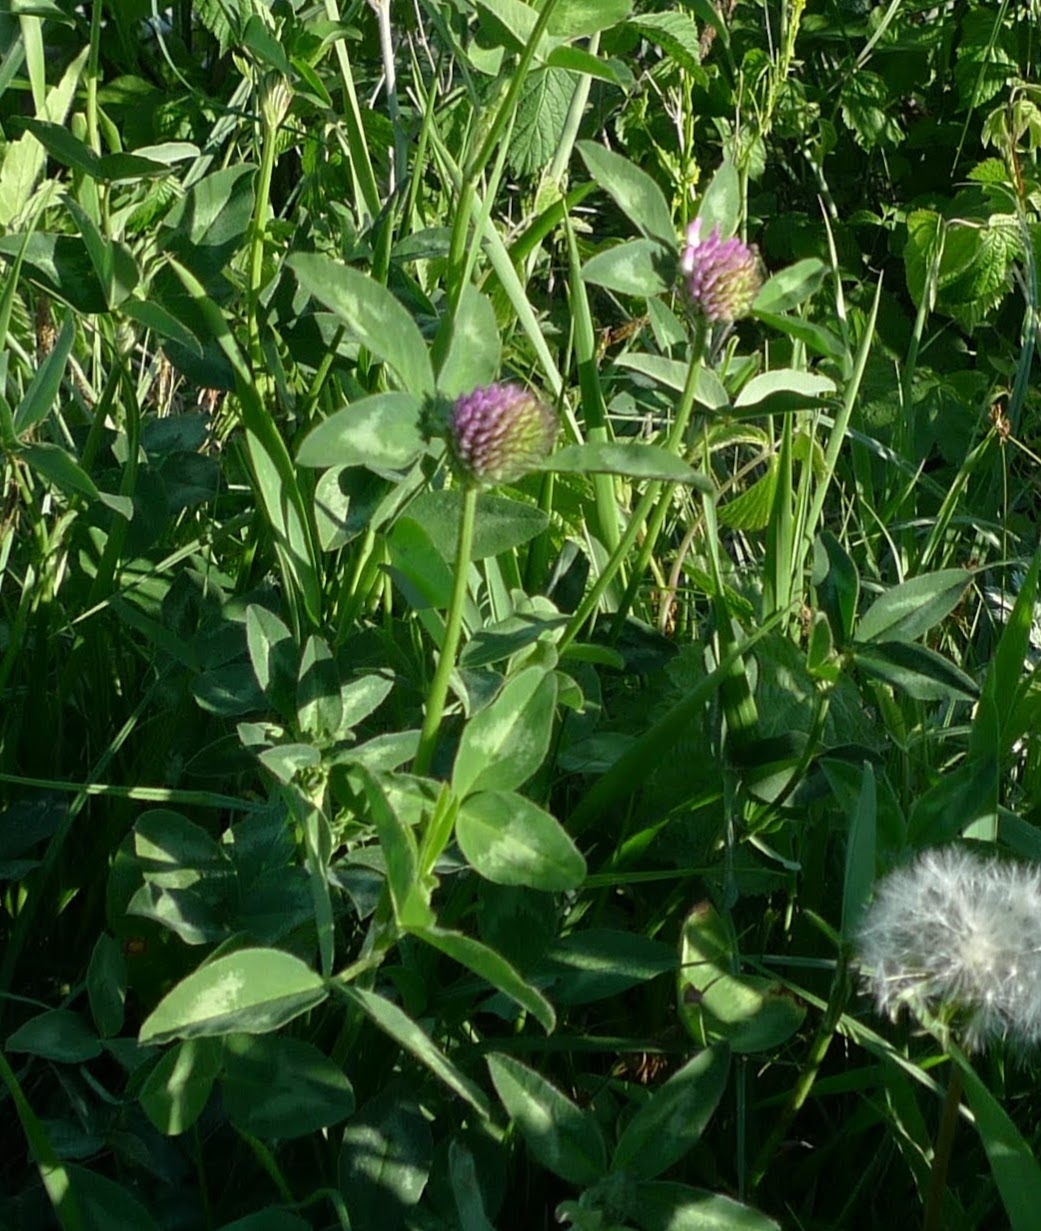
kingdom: Plantae
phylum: Tracheophyta
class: Magnoliopsida
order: Fabales
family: Fabaceae
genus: Trifolium
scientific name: Trifolium pratense
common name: Red clover
